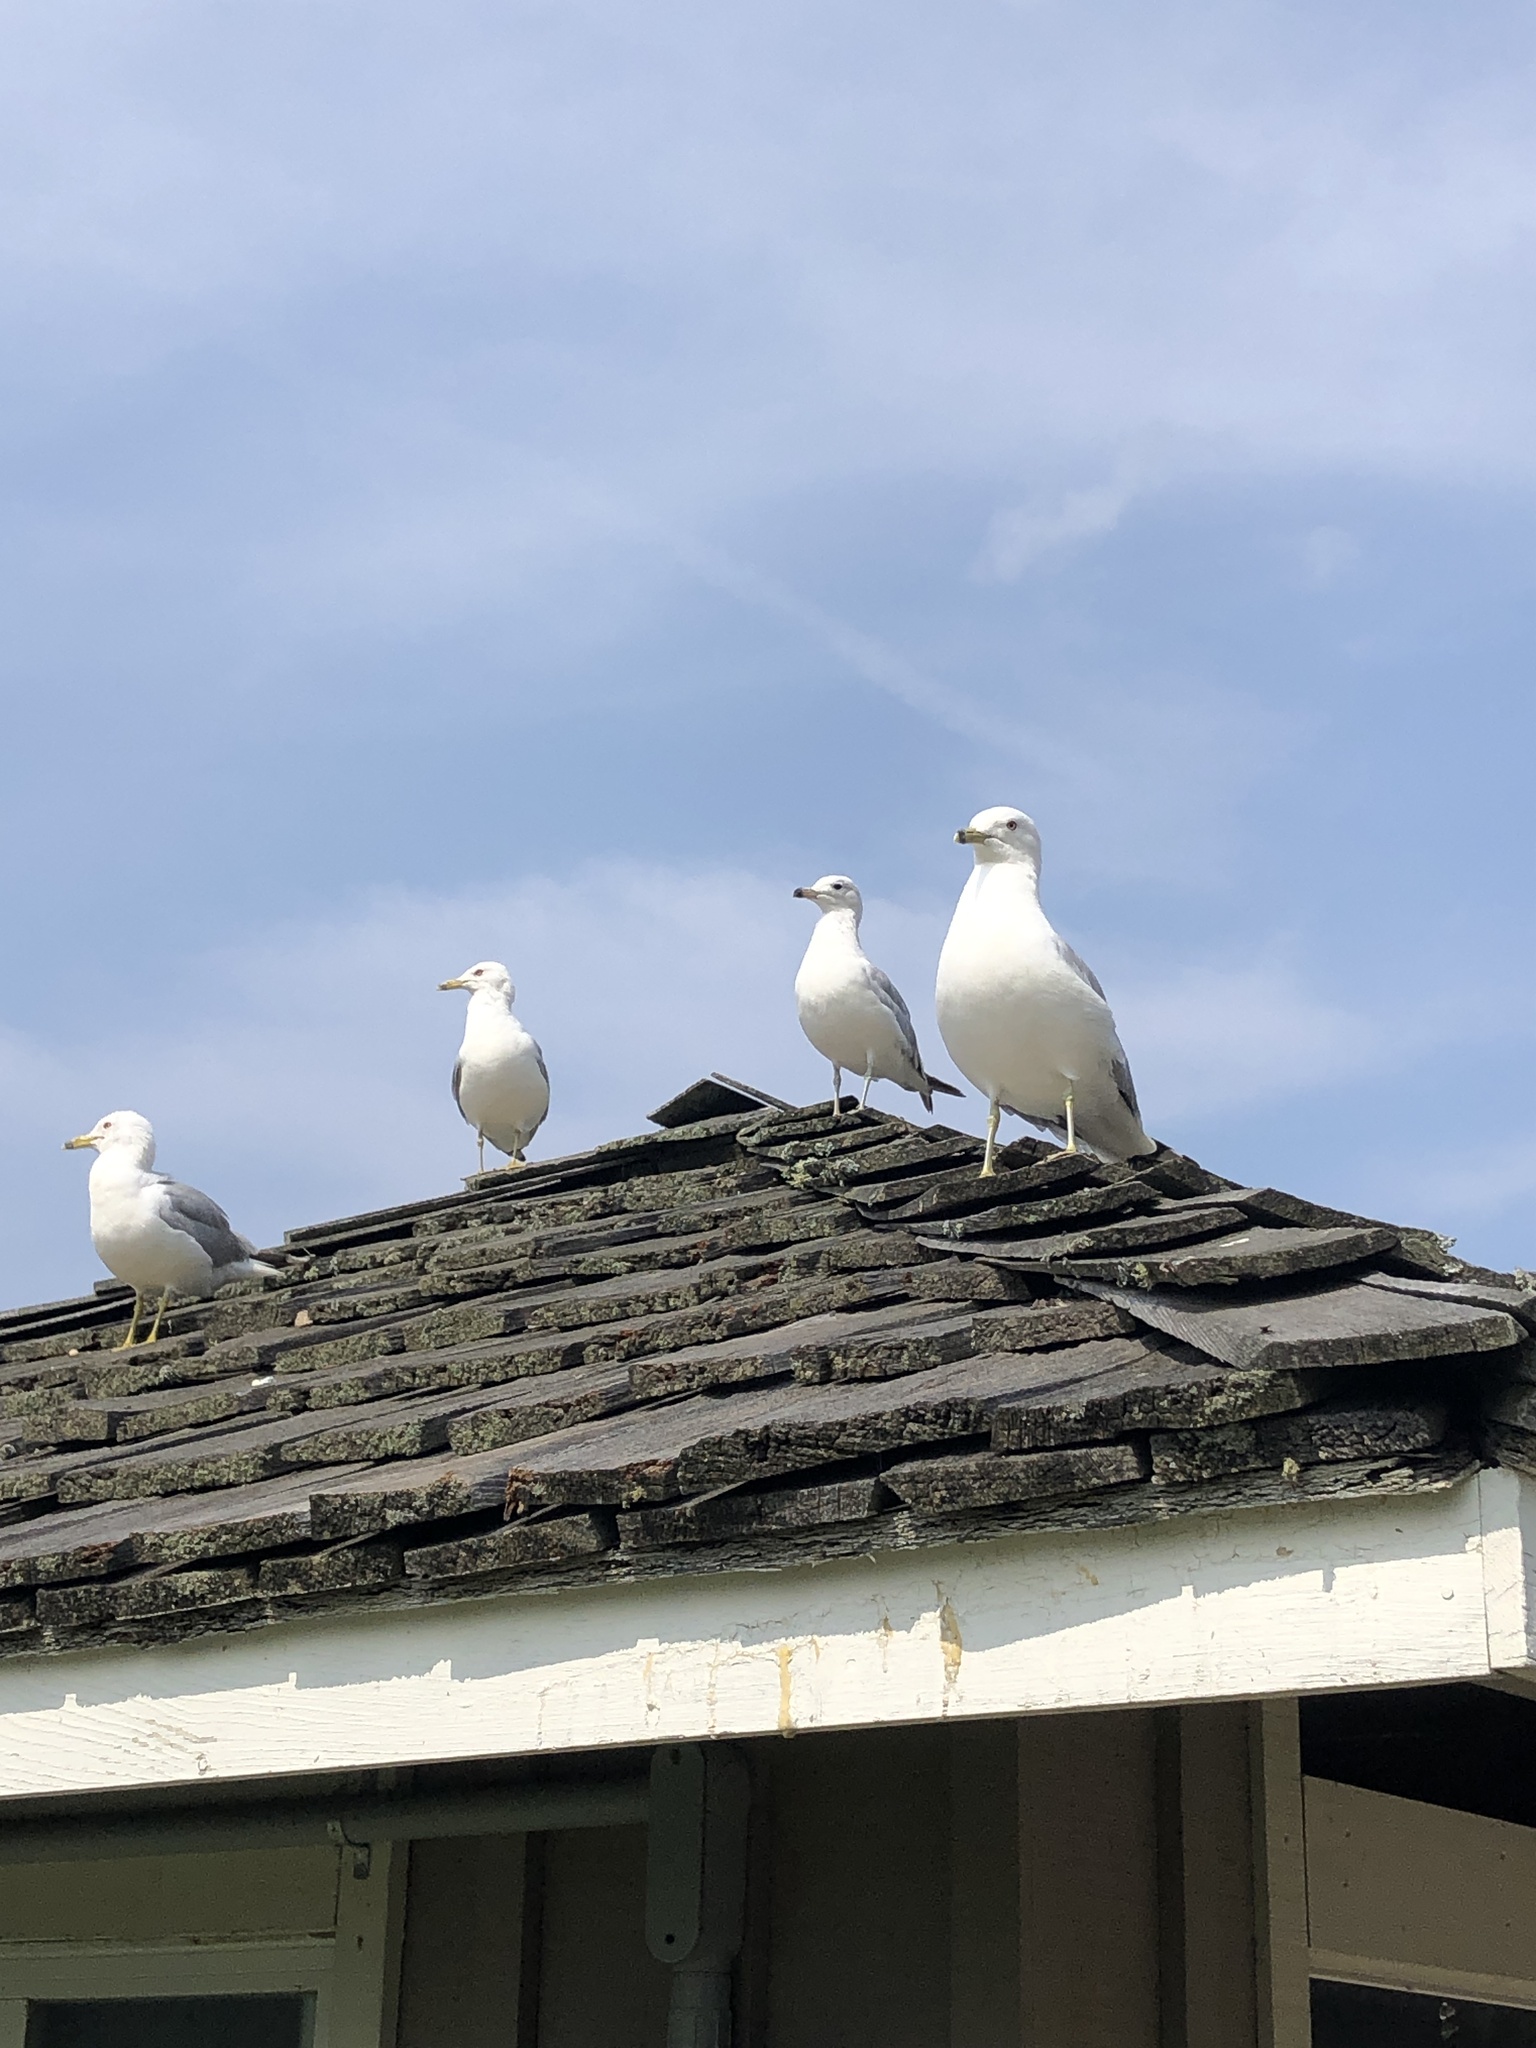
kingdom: Animalia
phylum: Chordata
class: Aves
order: Charadriiformes
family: Laridae
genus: Larus
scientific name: Larus delawarensis
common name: Ring-billed gull
